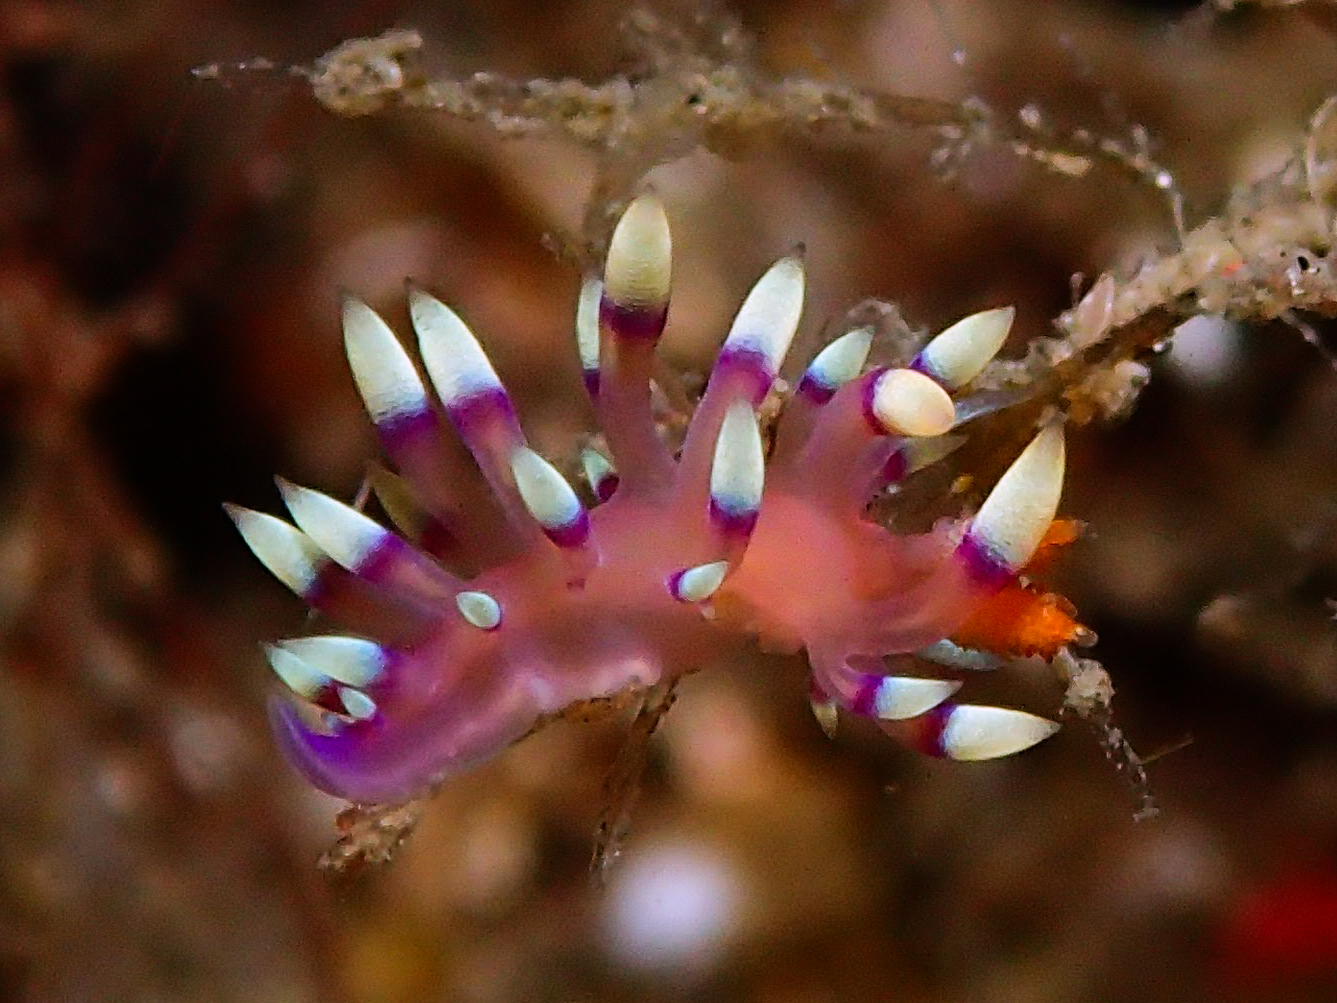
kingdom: Animalia
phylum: Mollusca
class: Gastropoda
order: Nudibranchia
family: Flabellinidae
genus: Coryphellina
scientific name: Coryphellina exoptata
